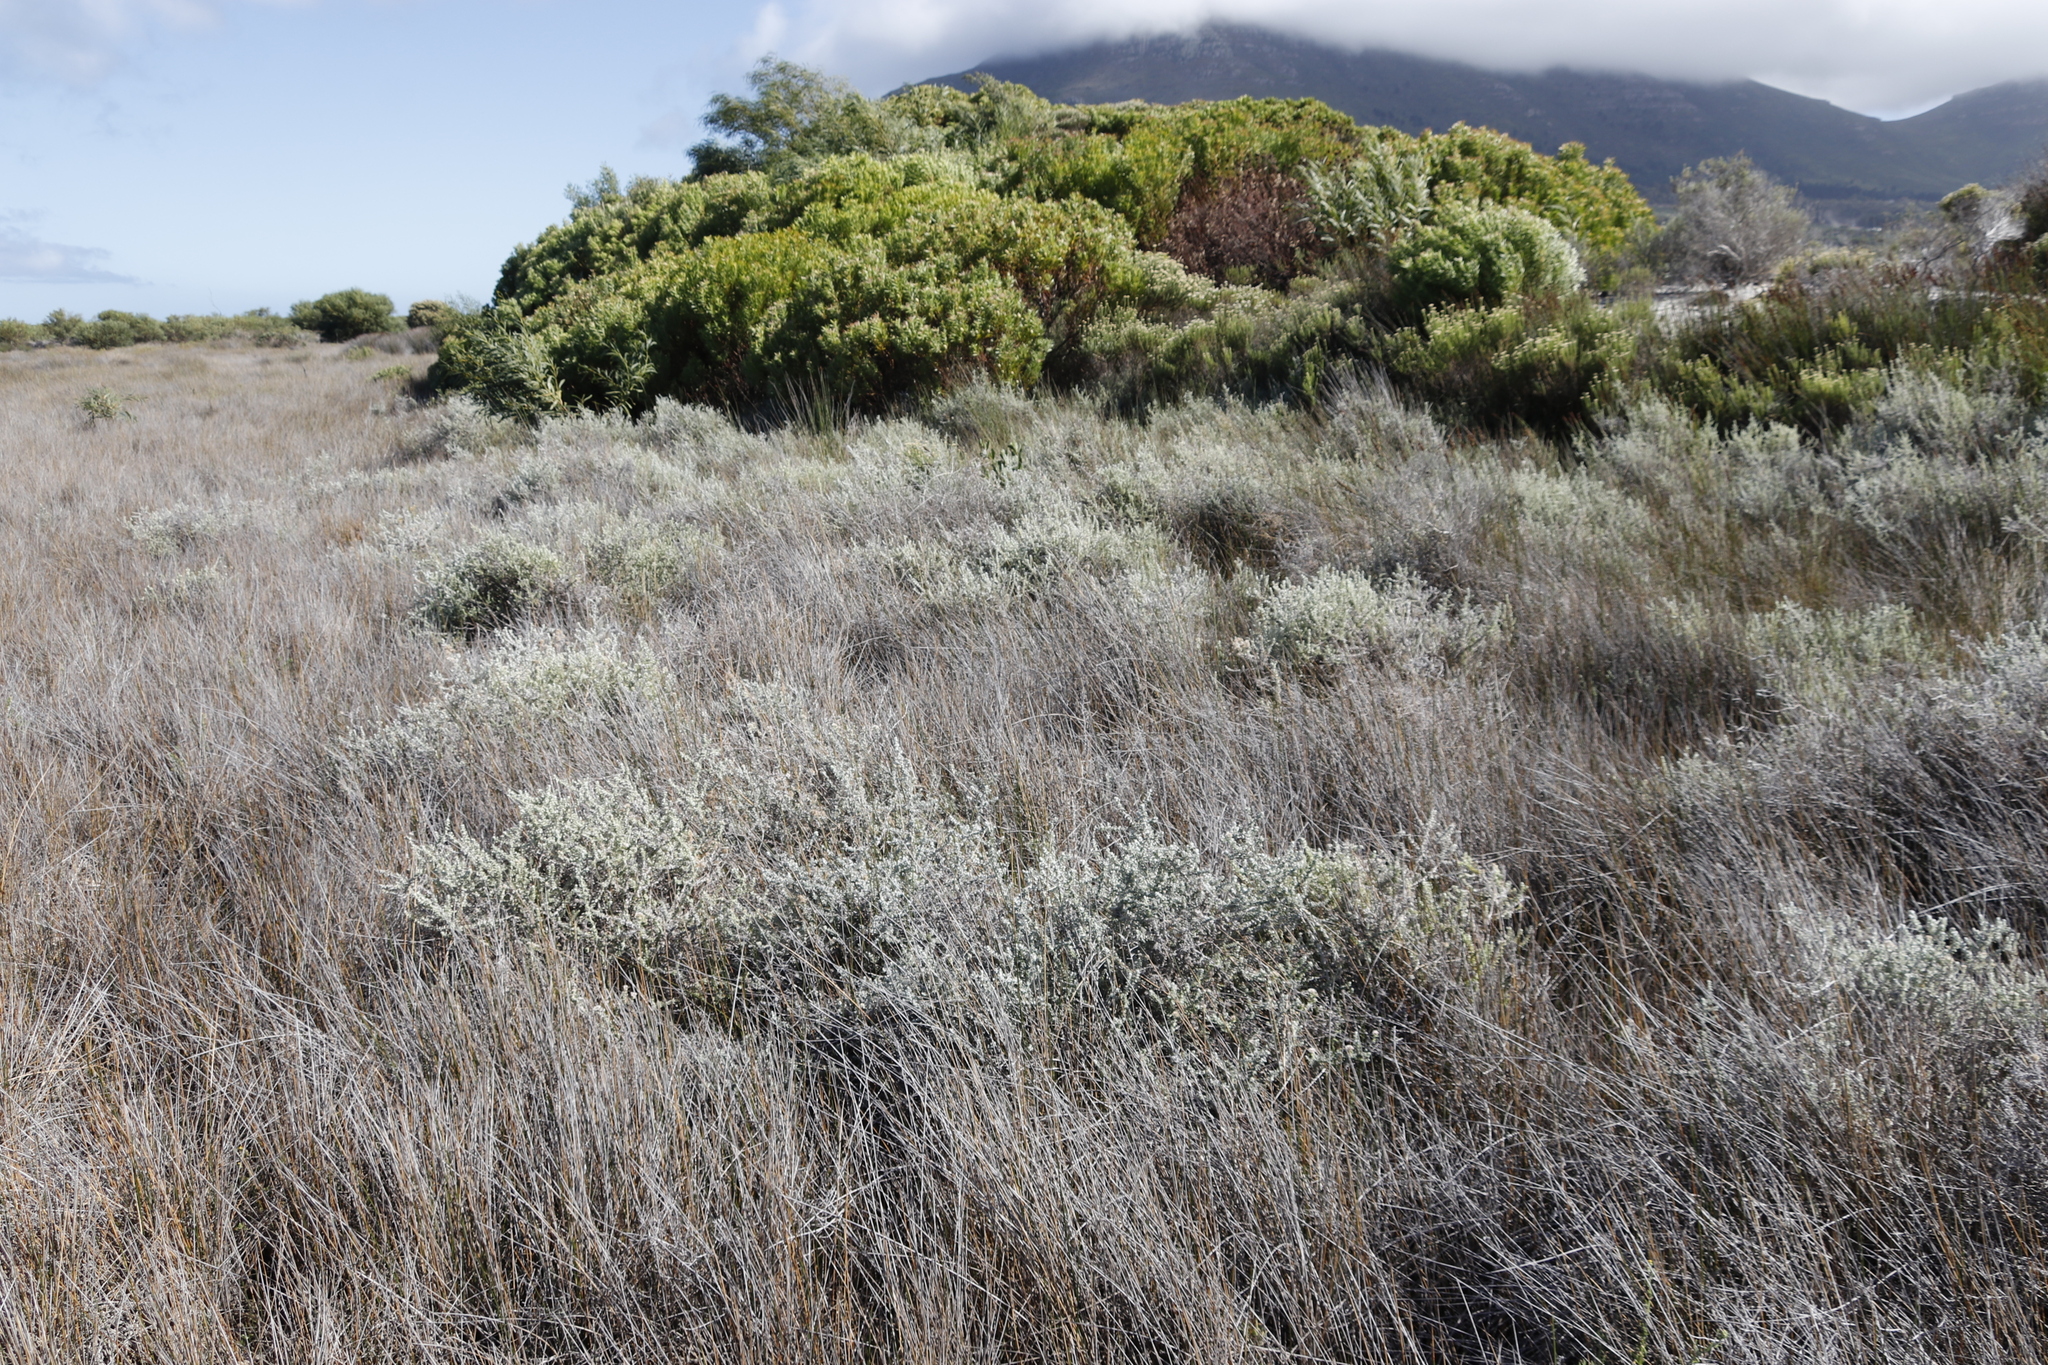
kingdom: Plantae
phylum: Tracheophyta
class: Magnoliopsida
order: Proteales
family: Proteaceae
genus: Leucadendron
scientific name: Leucadendron coniferum
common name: Dune conebush
